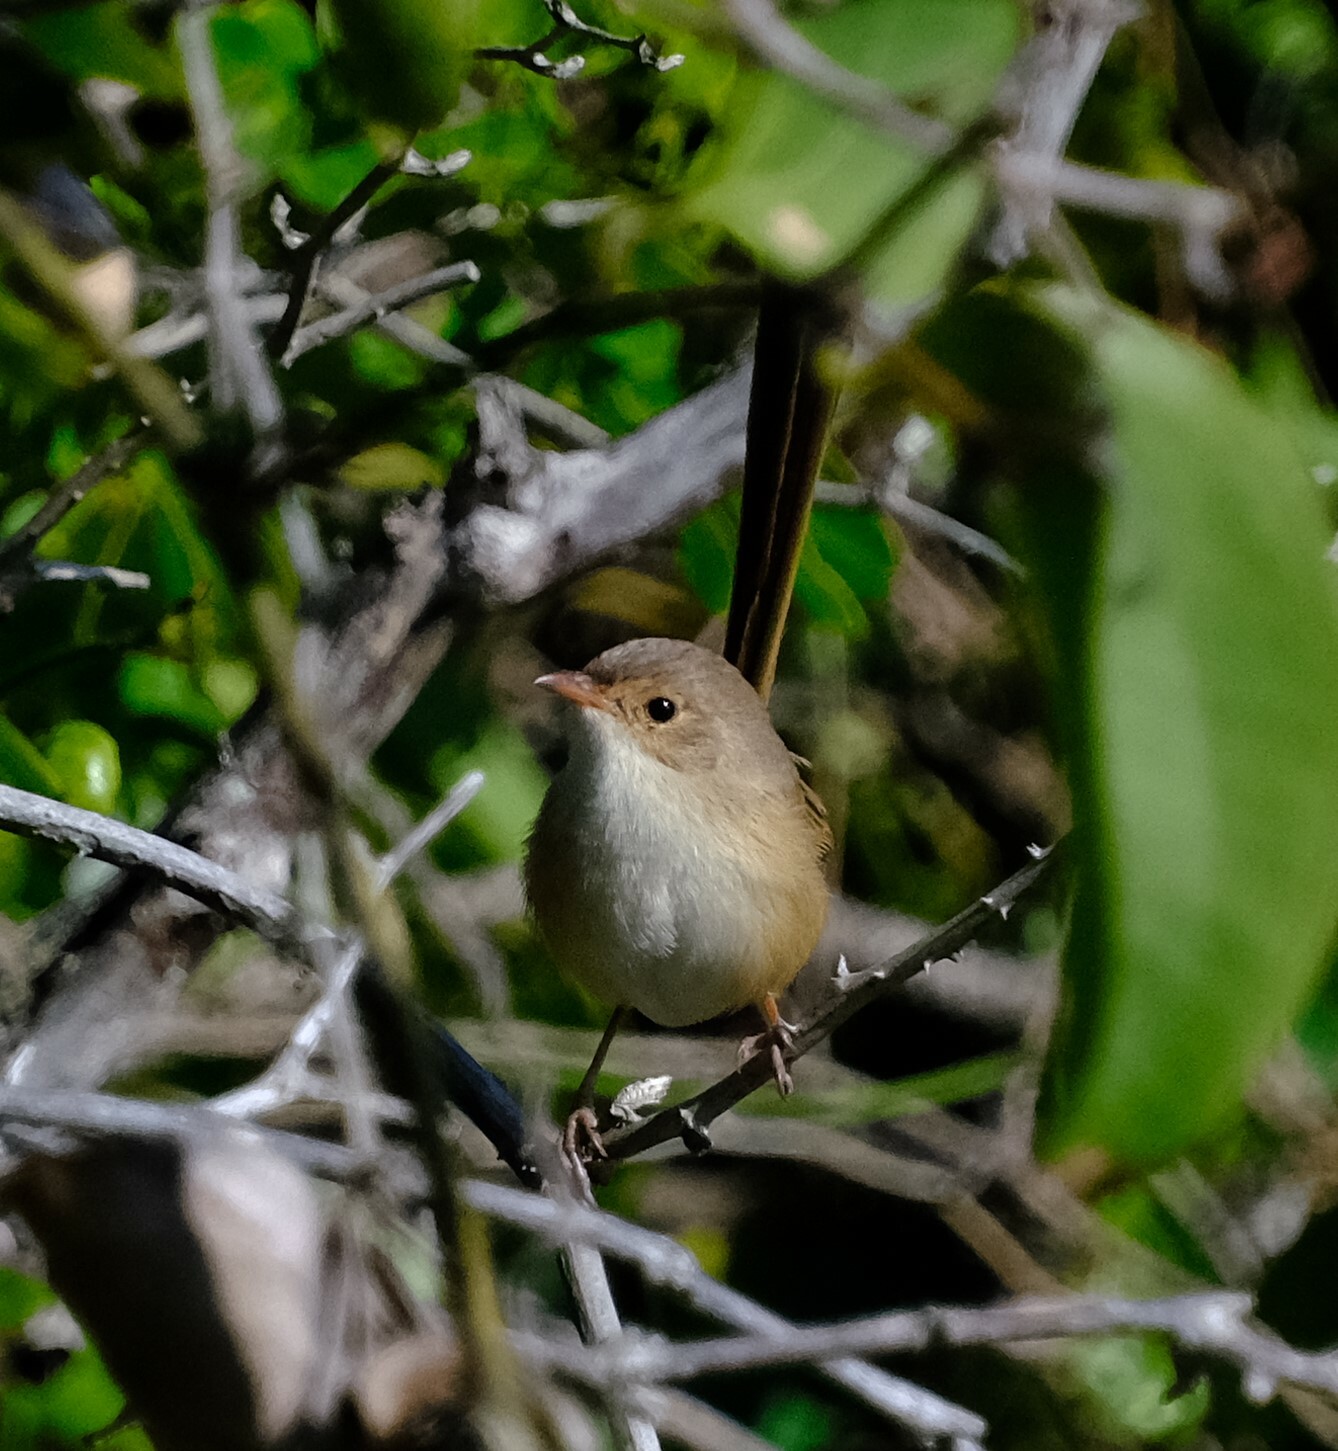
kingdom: Animalia
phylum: Chordata
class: Aves
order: Passeriformes
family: Maluridae
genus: Malurus
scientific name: Malurus melanocephalus
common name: Red-backed fairywren
